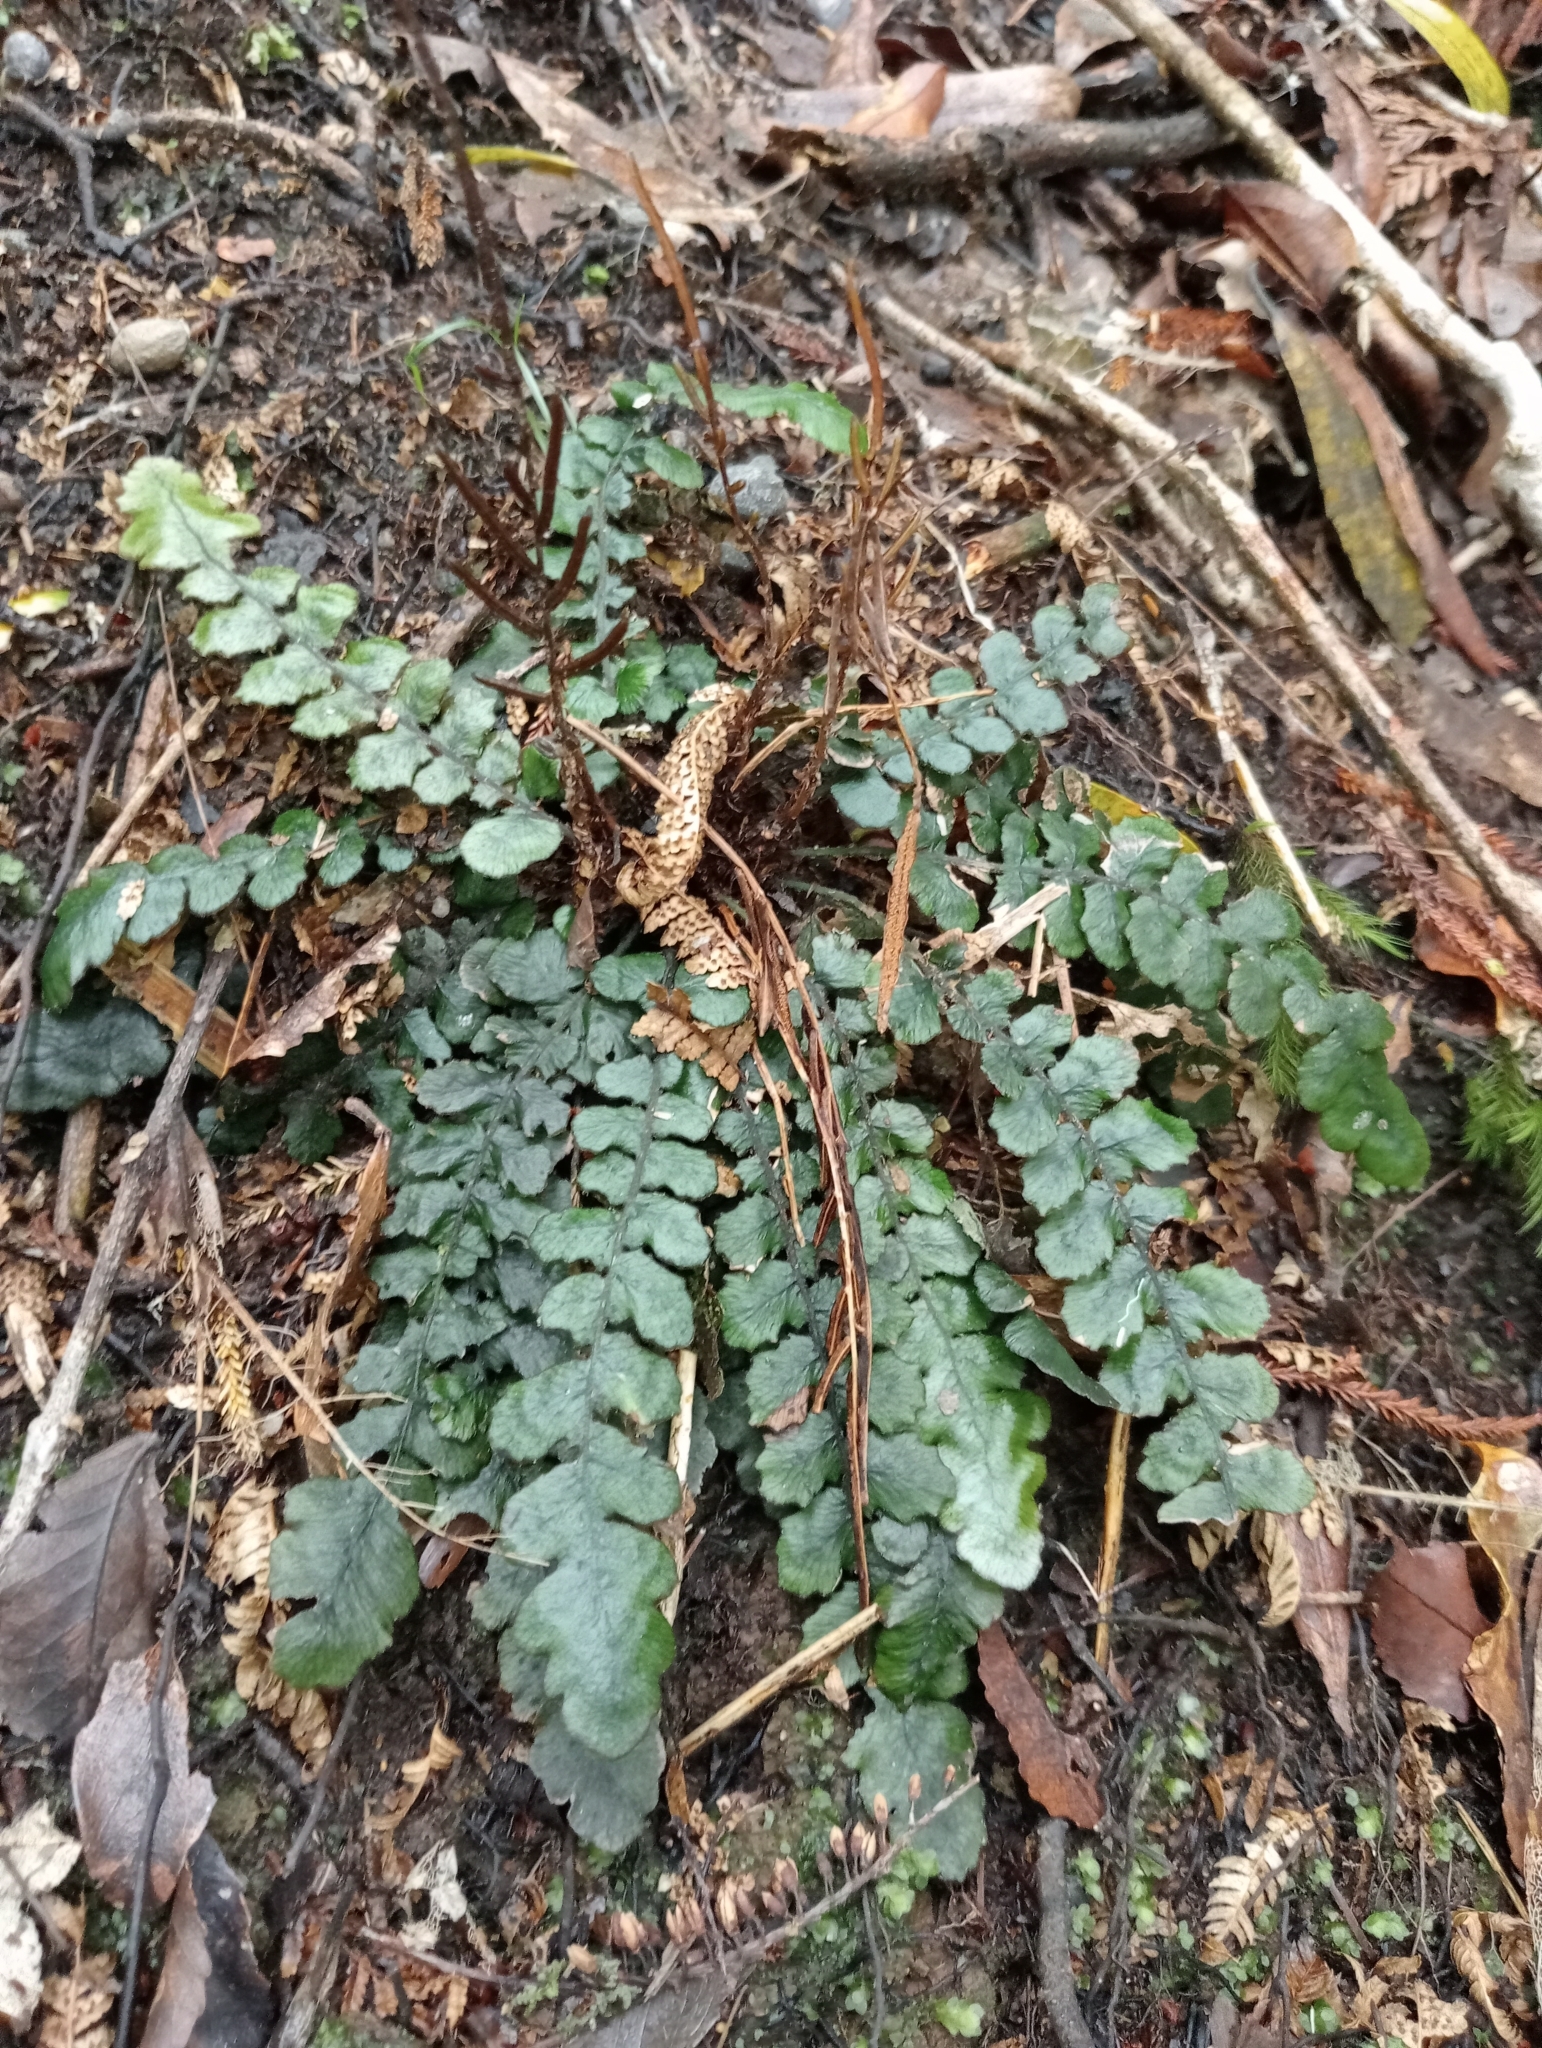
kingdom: Plantae
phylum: Tracheophyta
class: Polypodiopsida
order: Polypodiales
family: Blechnaceae
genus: Cranfillia
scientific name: Cranfillia nigra
